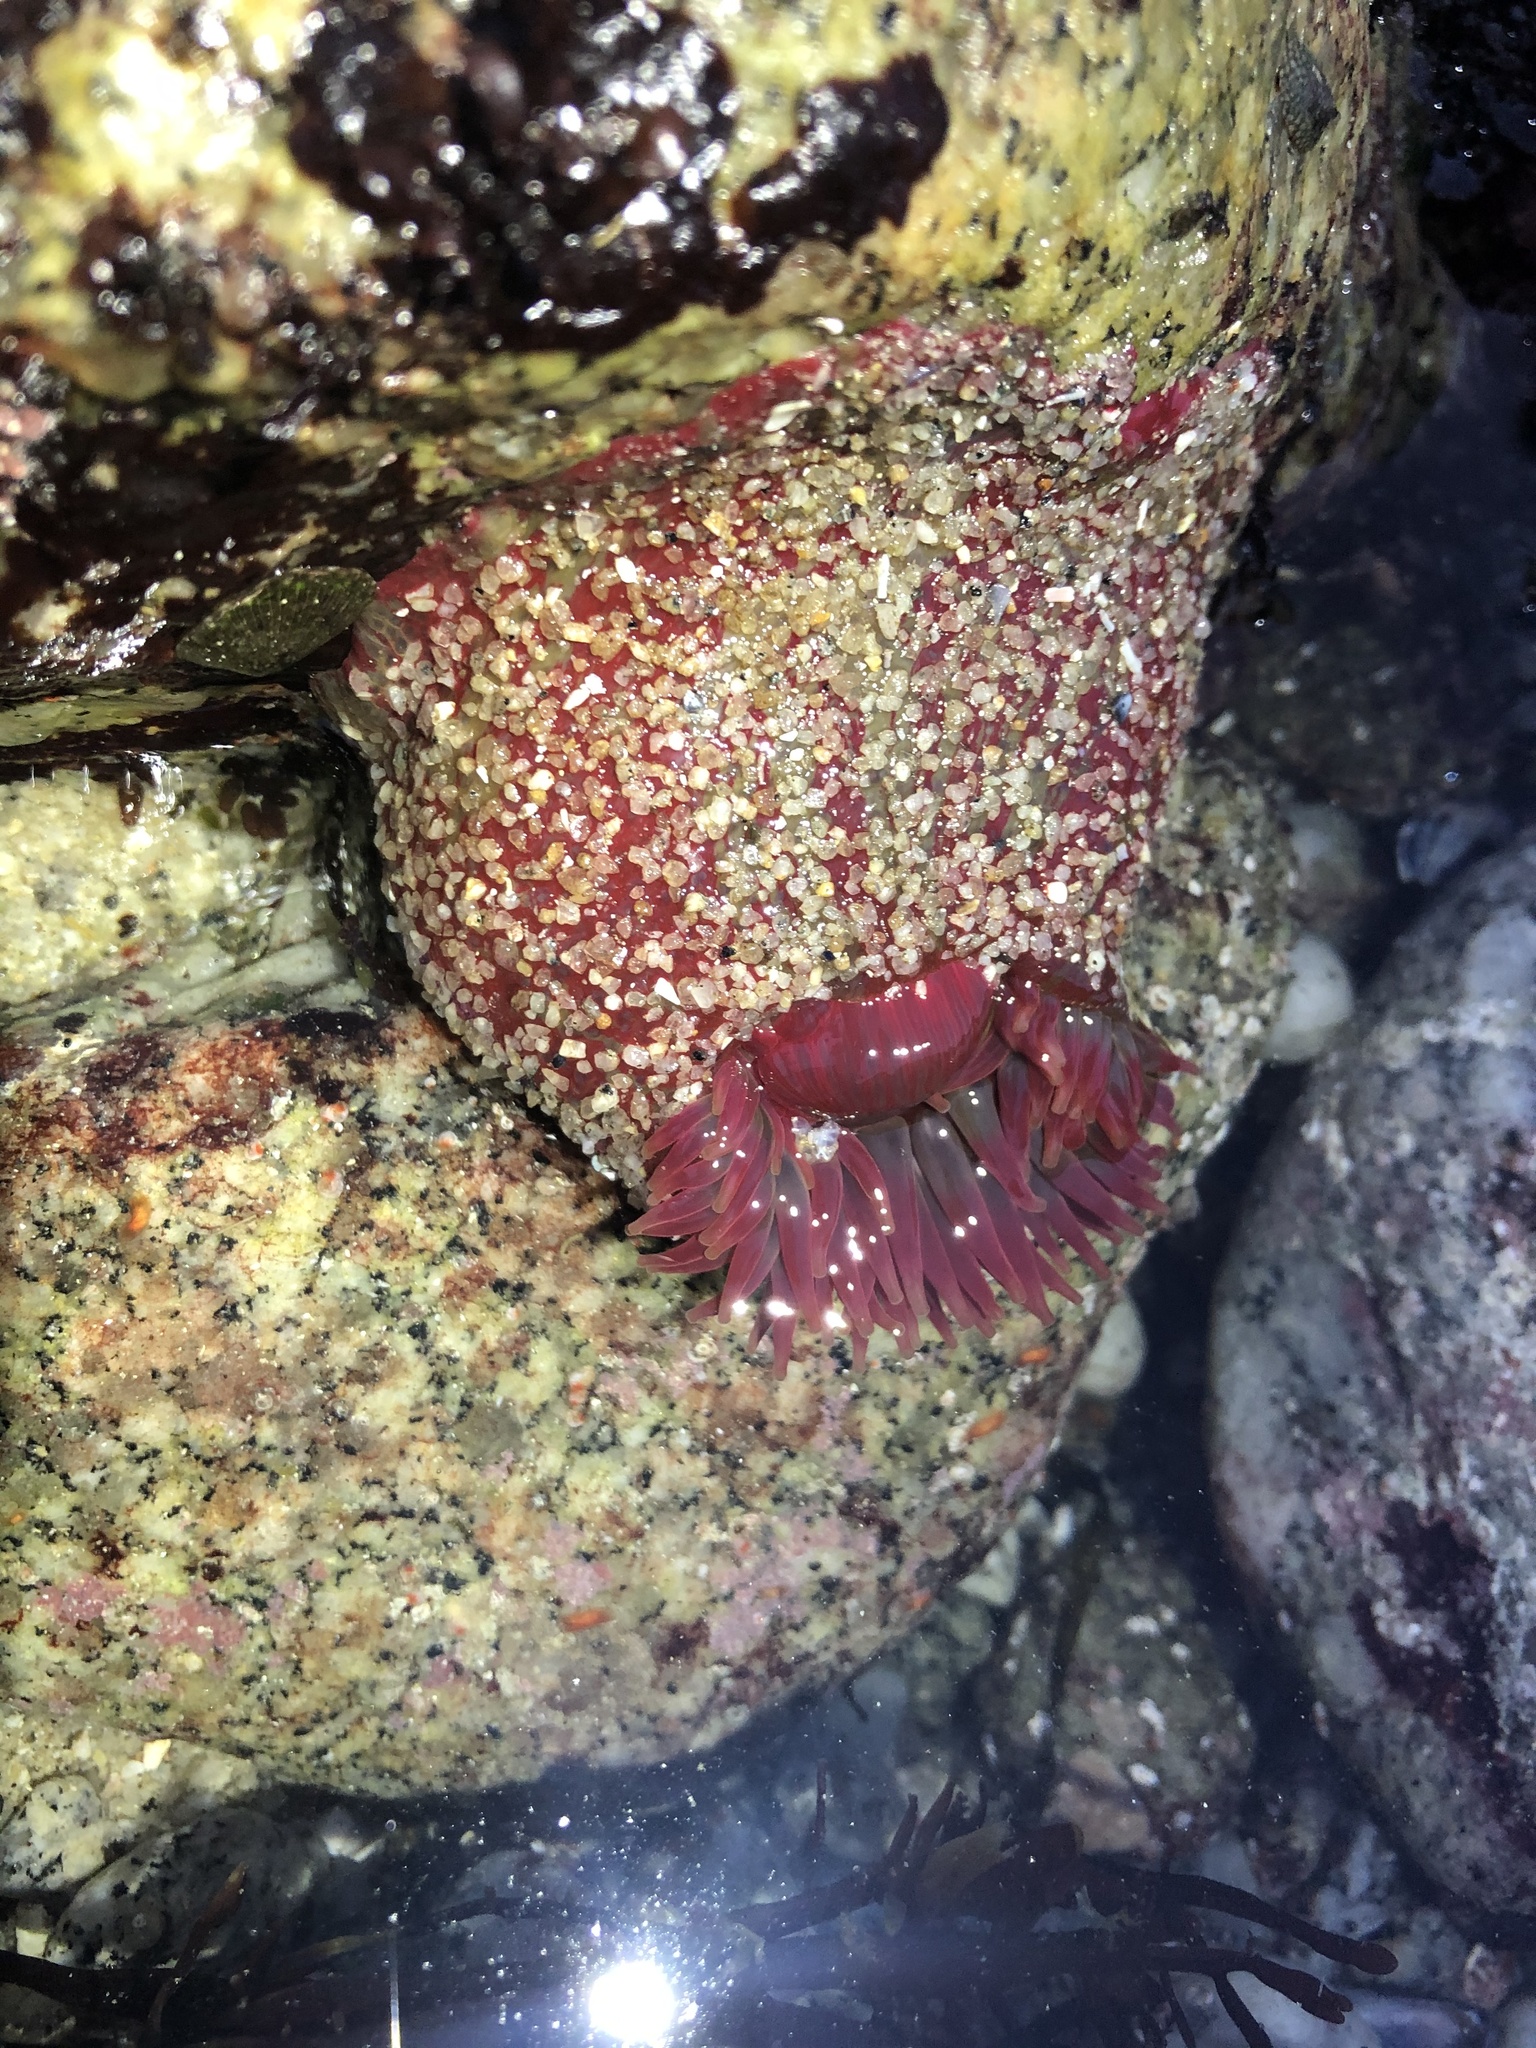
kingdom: Animalia
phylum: Cnidaria
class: Anthozoa
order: Actiniaria
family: Actiniidae
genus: Urticina
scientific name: Urticina grebelnyi
